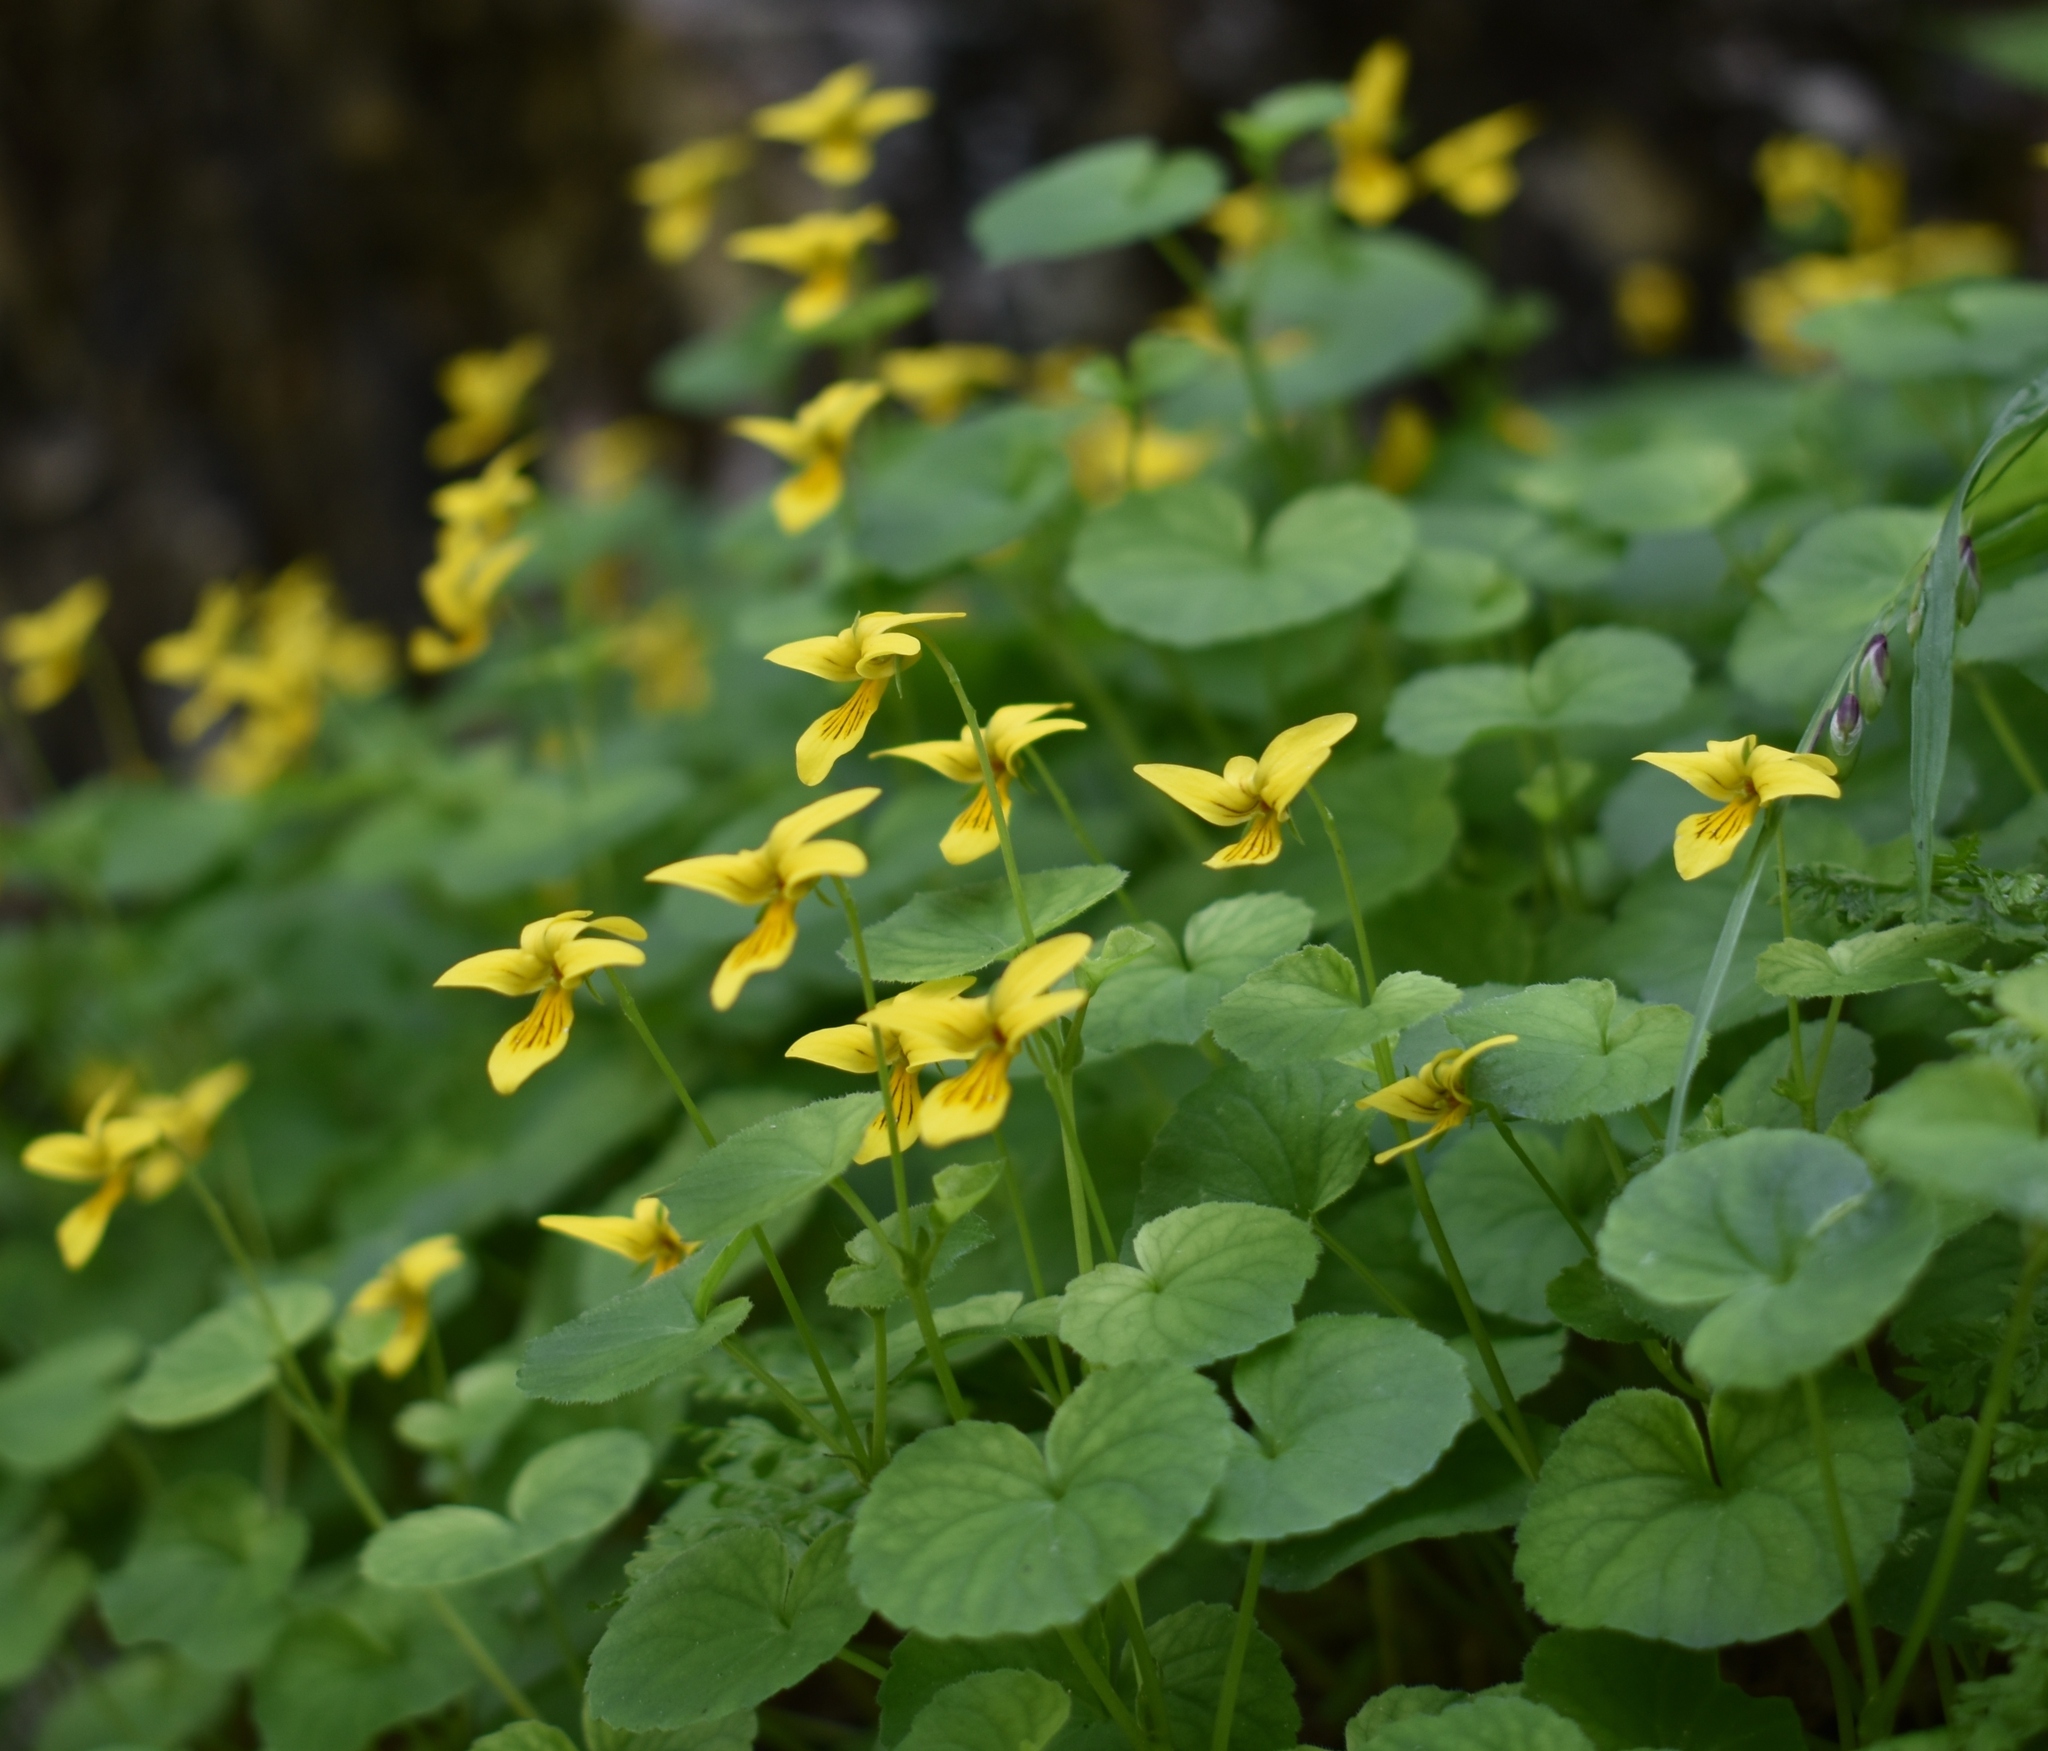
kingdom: Plantae
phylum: Tracheophyta
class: Magnoliopsida
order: Malpighiales
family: Violaceae
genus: Viola
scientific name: Viola biflora
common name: Alpine yellow violet
